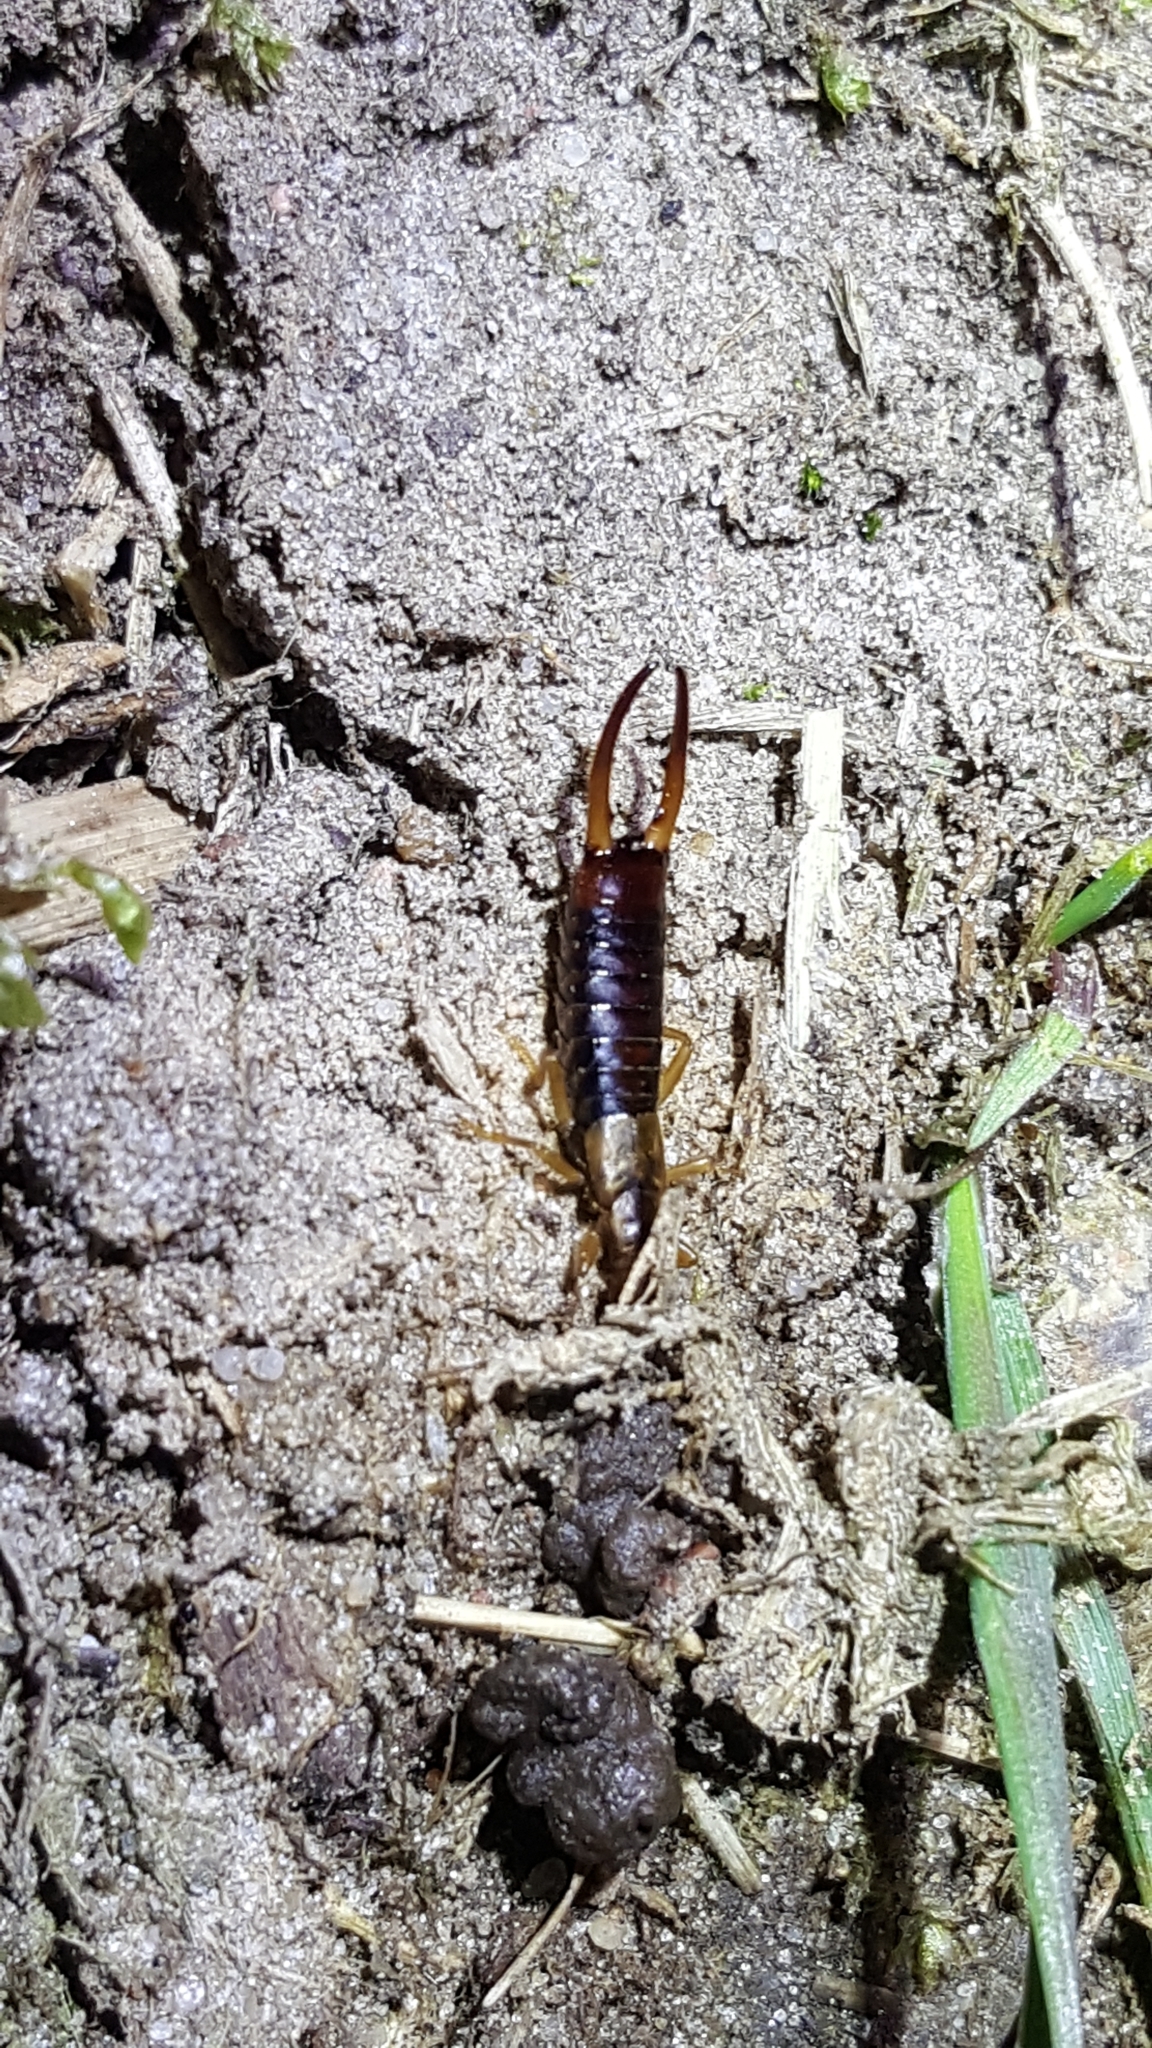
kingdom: Animalia
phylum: Arthropoda
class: Insecta
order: Dermaptera
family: Forficulidae
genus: Apterygida
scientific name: Apterygida albipennis
